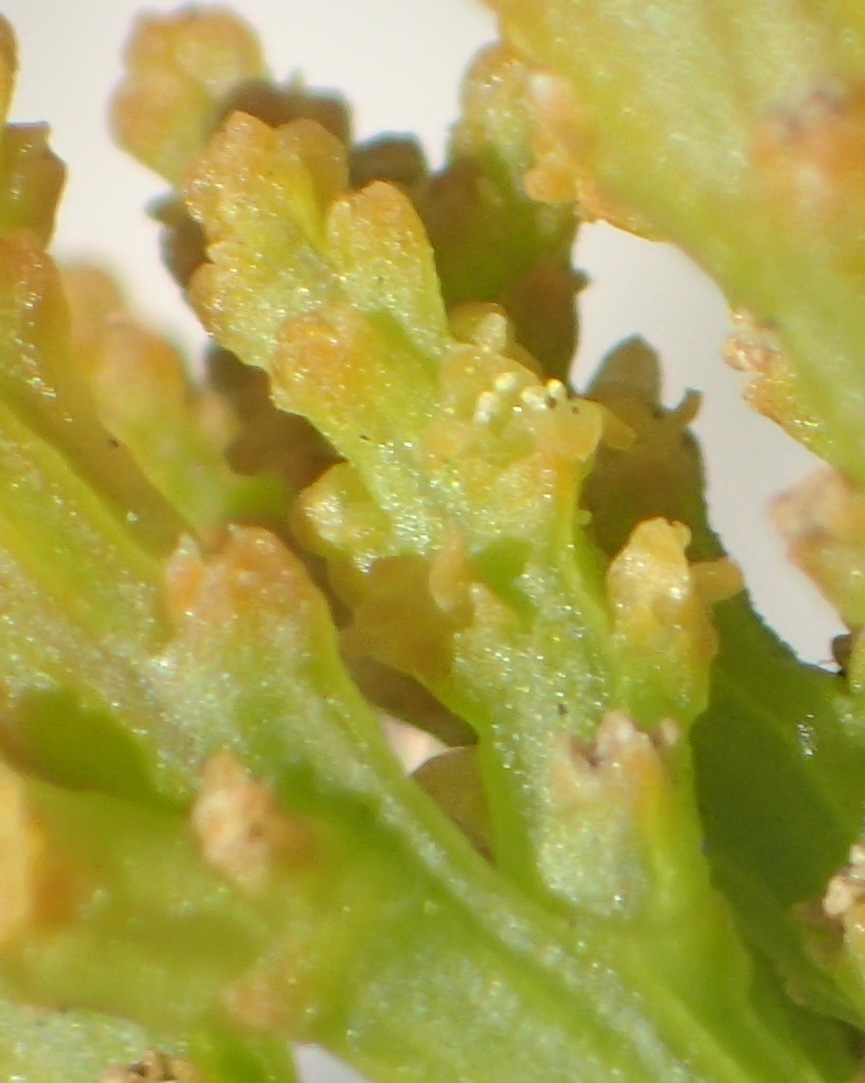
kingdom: Plantae
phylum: Tracheophyta
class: Magnoliopsida
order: Santalales
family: Thesiaceae
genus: Thesium
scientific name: Thesium fragile
